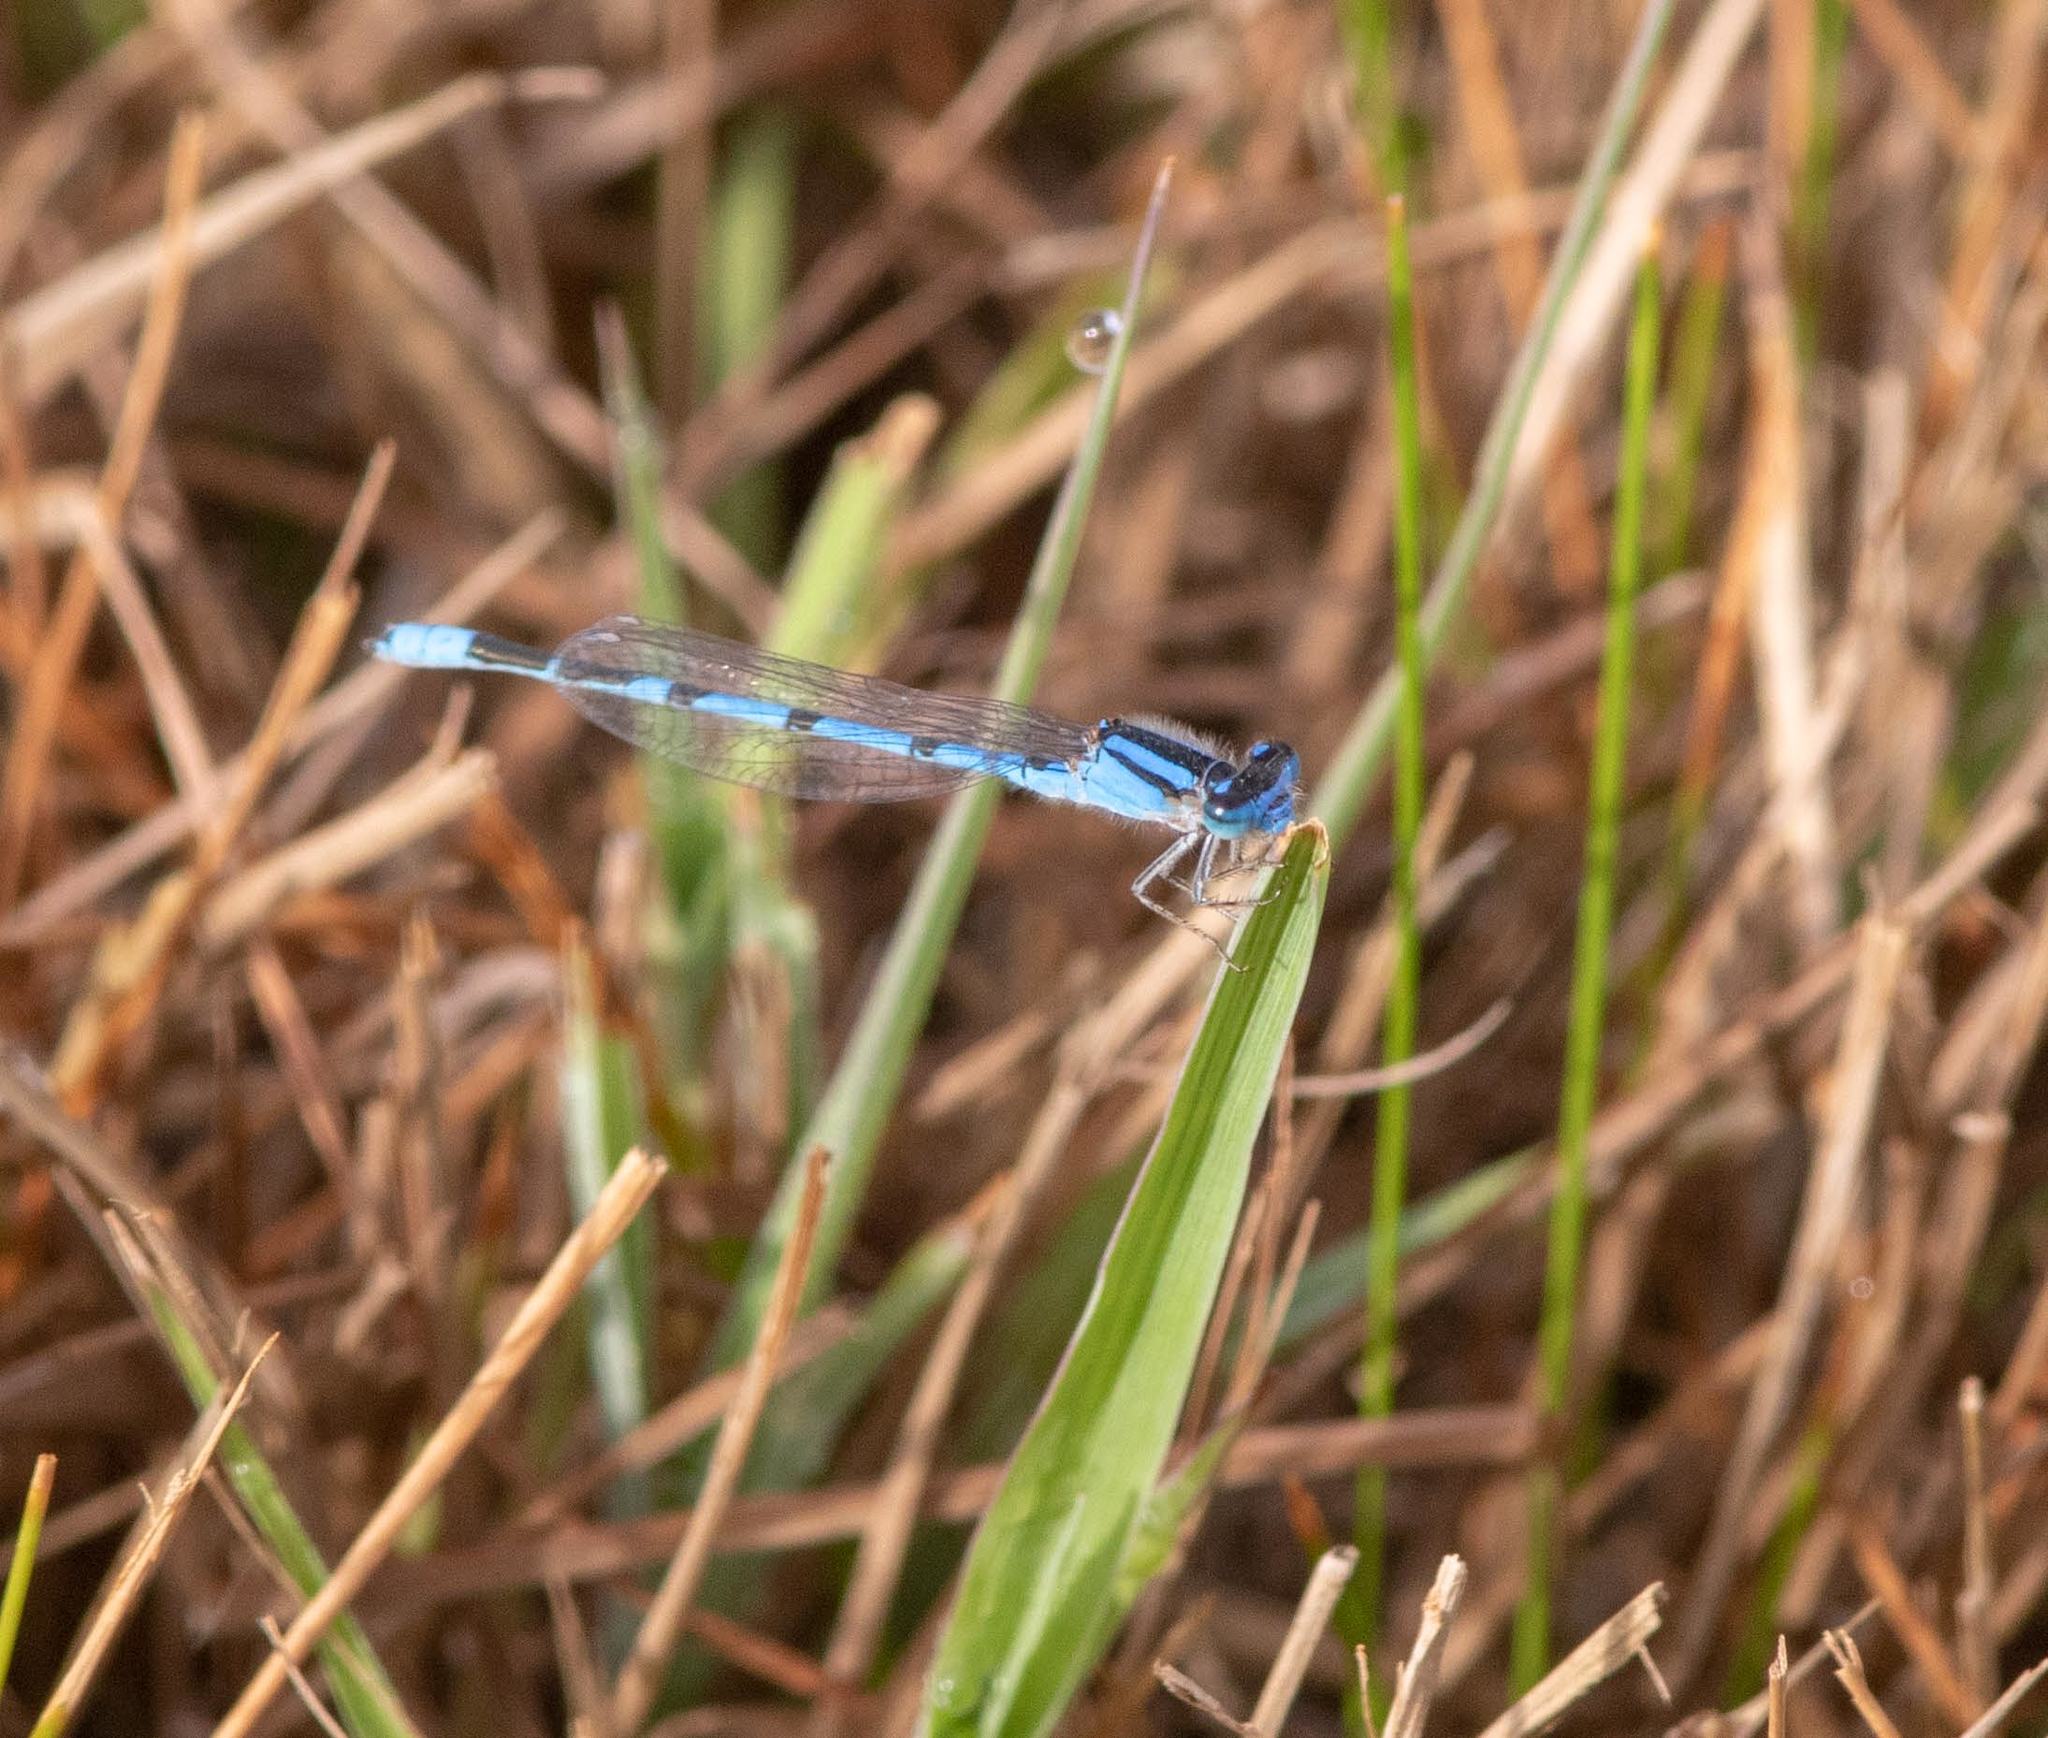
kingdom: Animalia
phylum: Arthropoda
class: Insecta
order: Odonata
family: Coenagrionidae
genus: Enallagma
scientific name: Enallagma civile
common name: Damselfly
